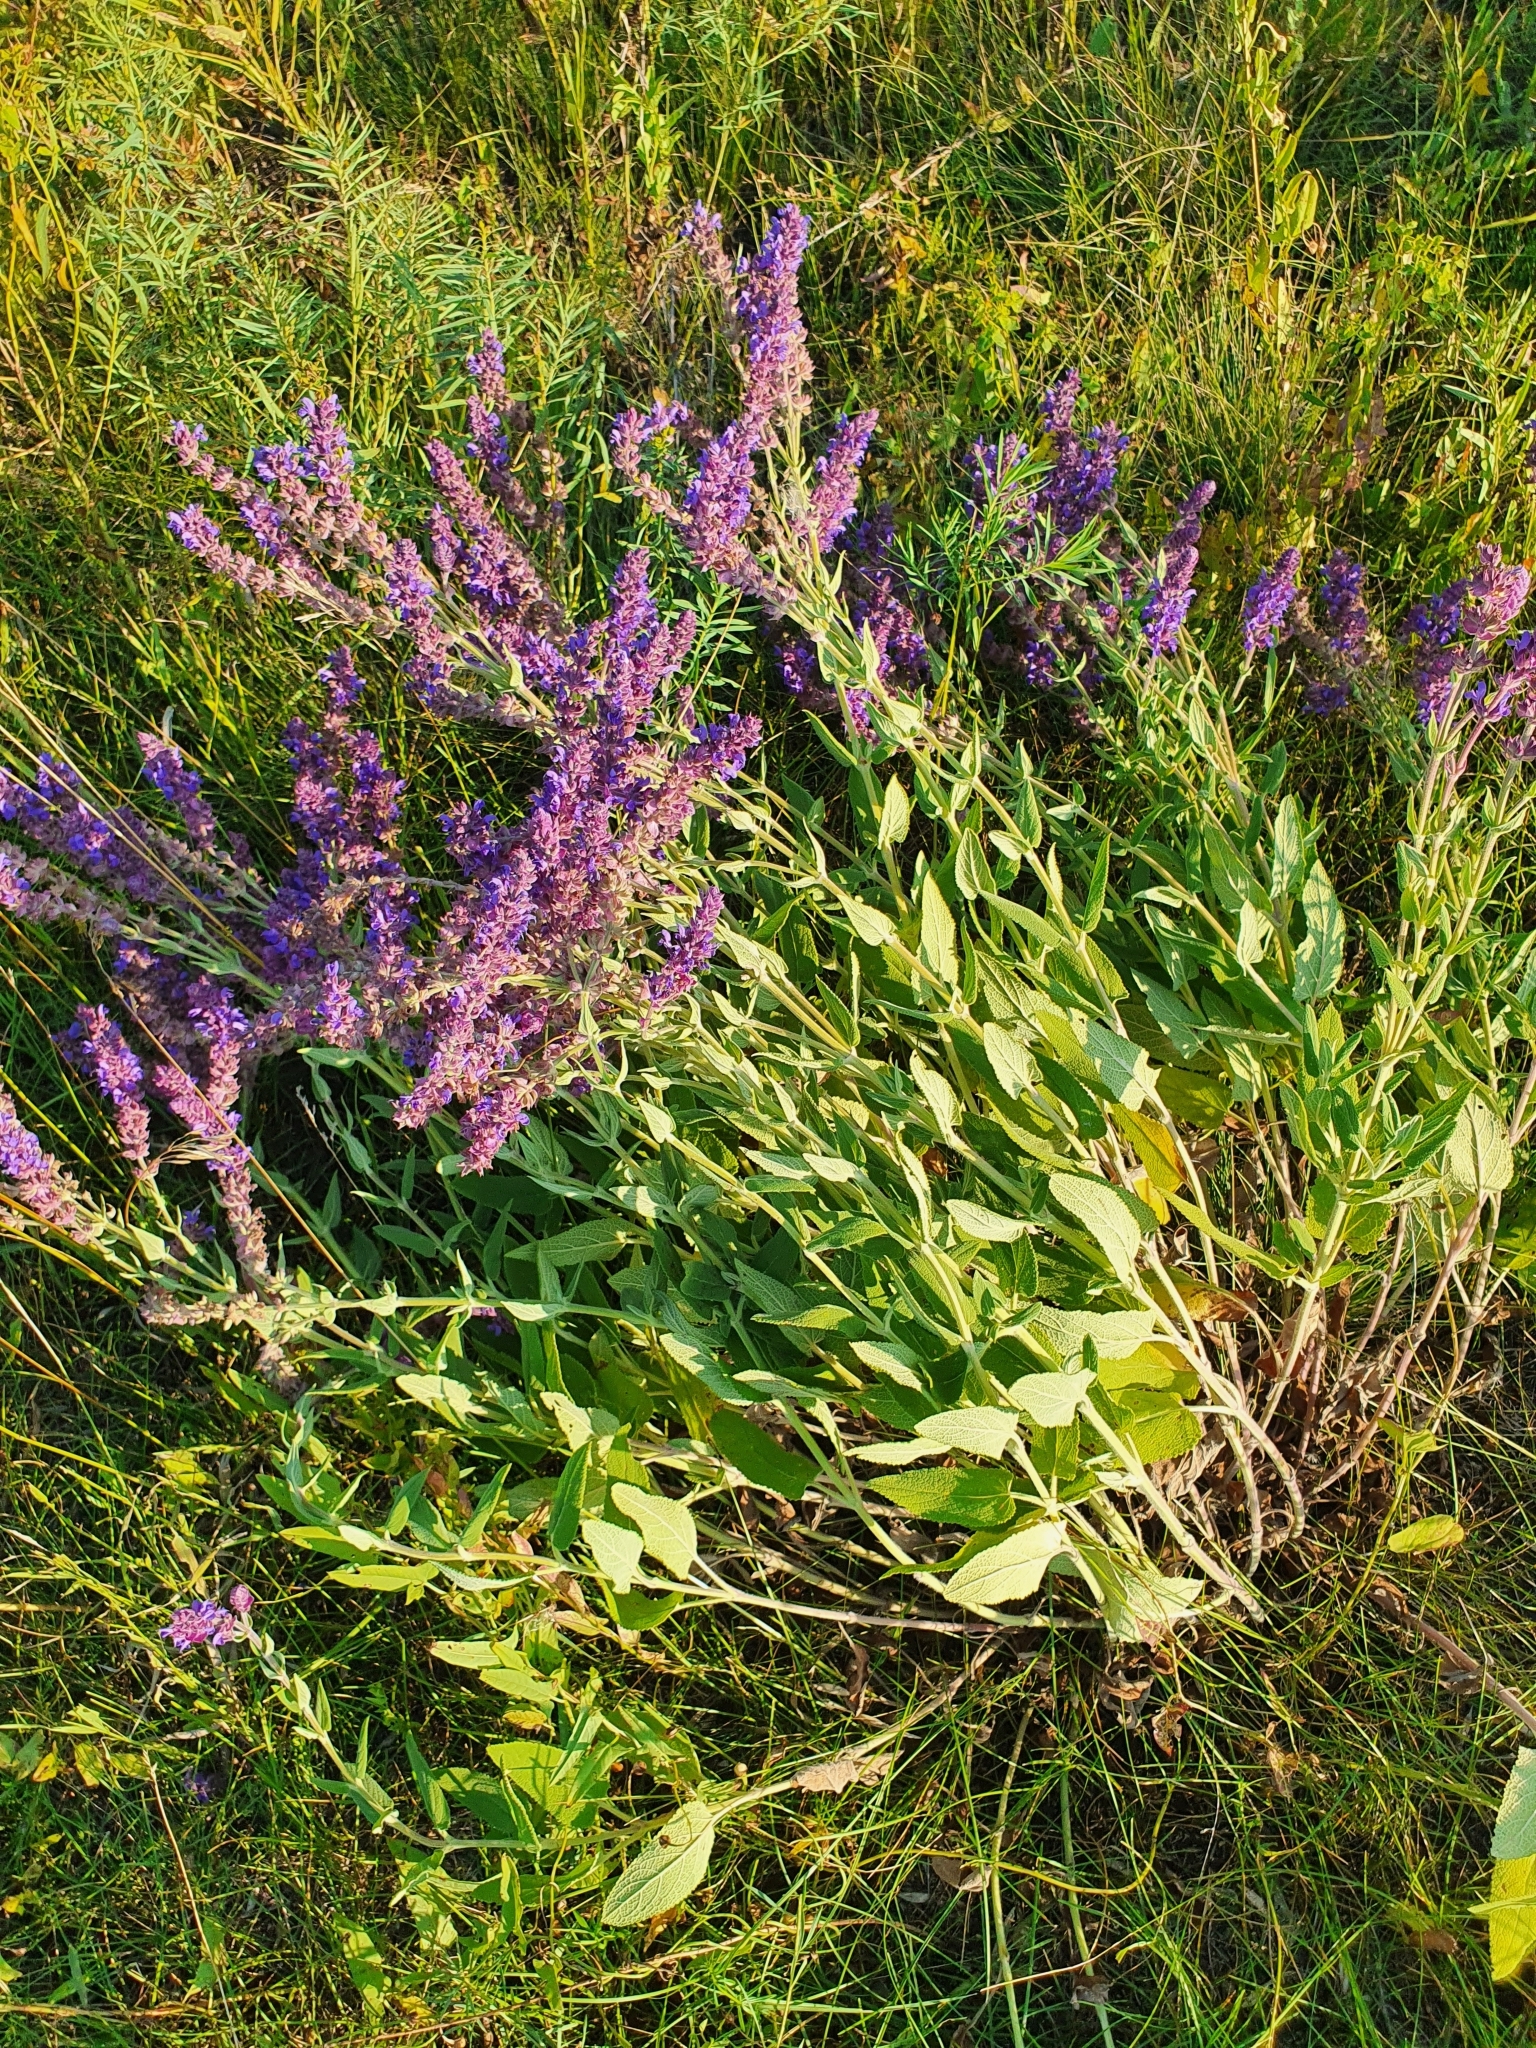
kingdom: Plantae
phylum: Tracheophyta
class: Magnoliopsida
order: Lamiales
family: Lamiaceae
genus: Salvia
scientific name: Salvia nemorosa
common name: Balkan clary
